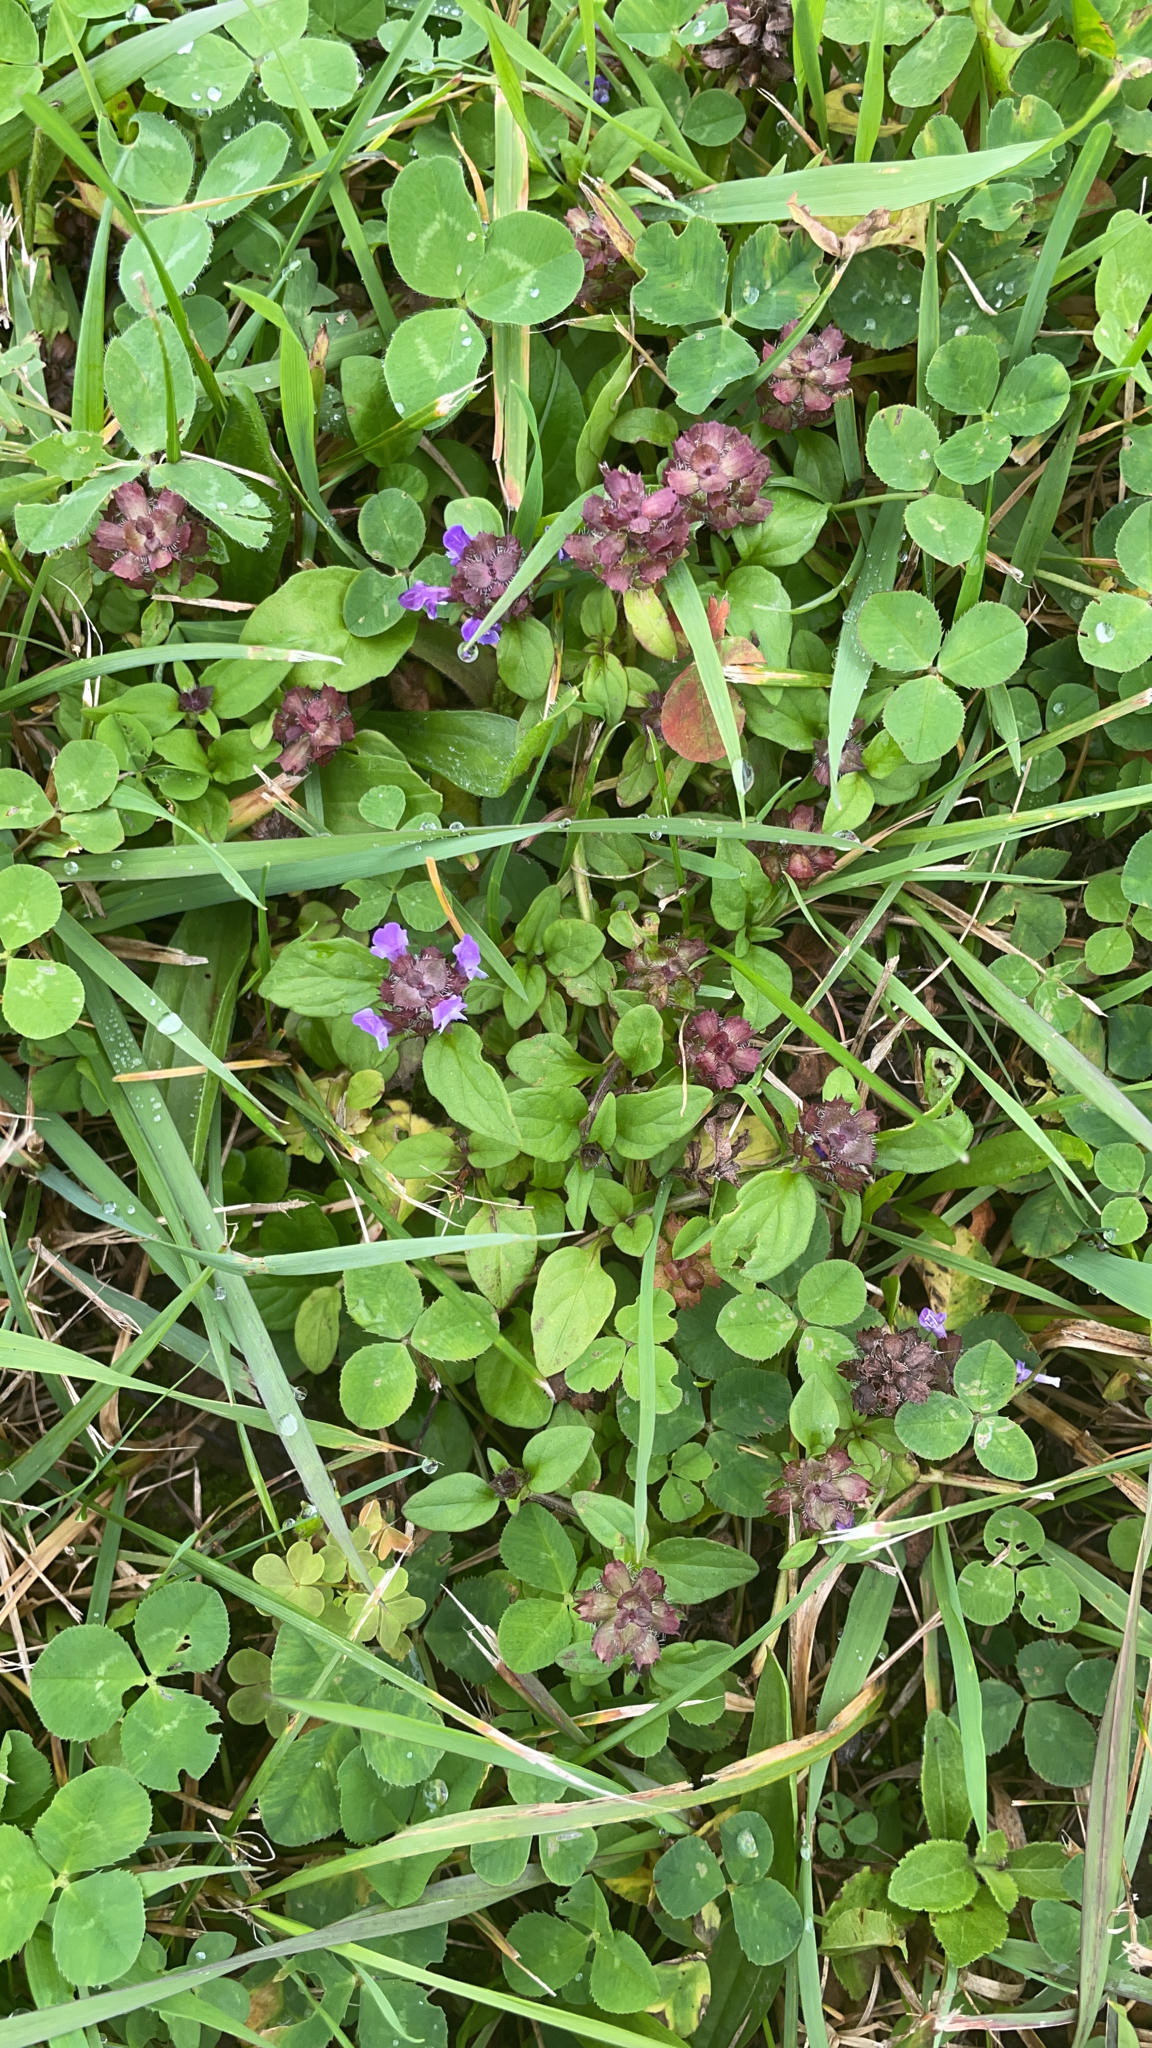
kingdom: Plantae
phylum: Tracheophyta
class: Magnoliopsida
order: Lamiales
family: Lamiaceae
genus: Prunella
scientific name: Prunella vulgaris
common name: Heal-all
